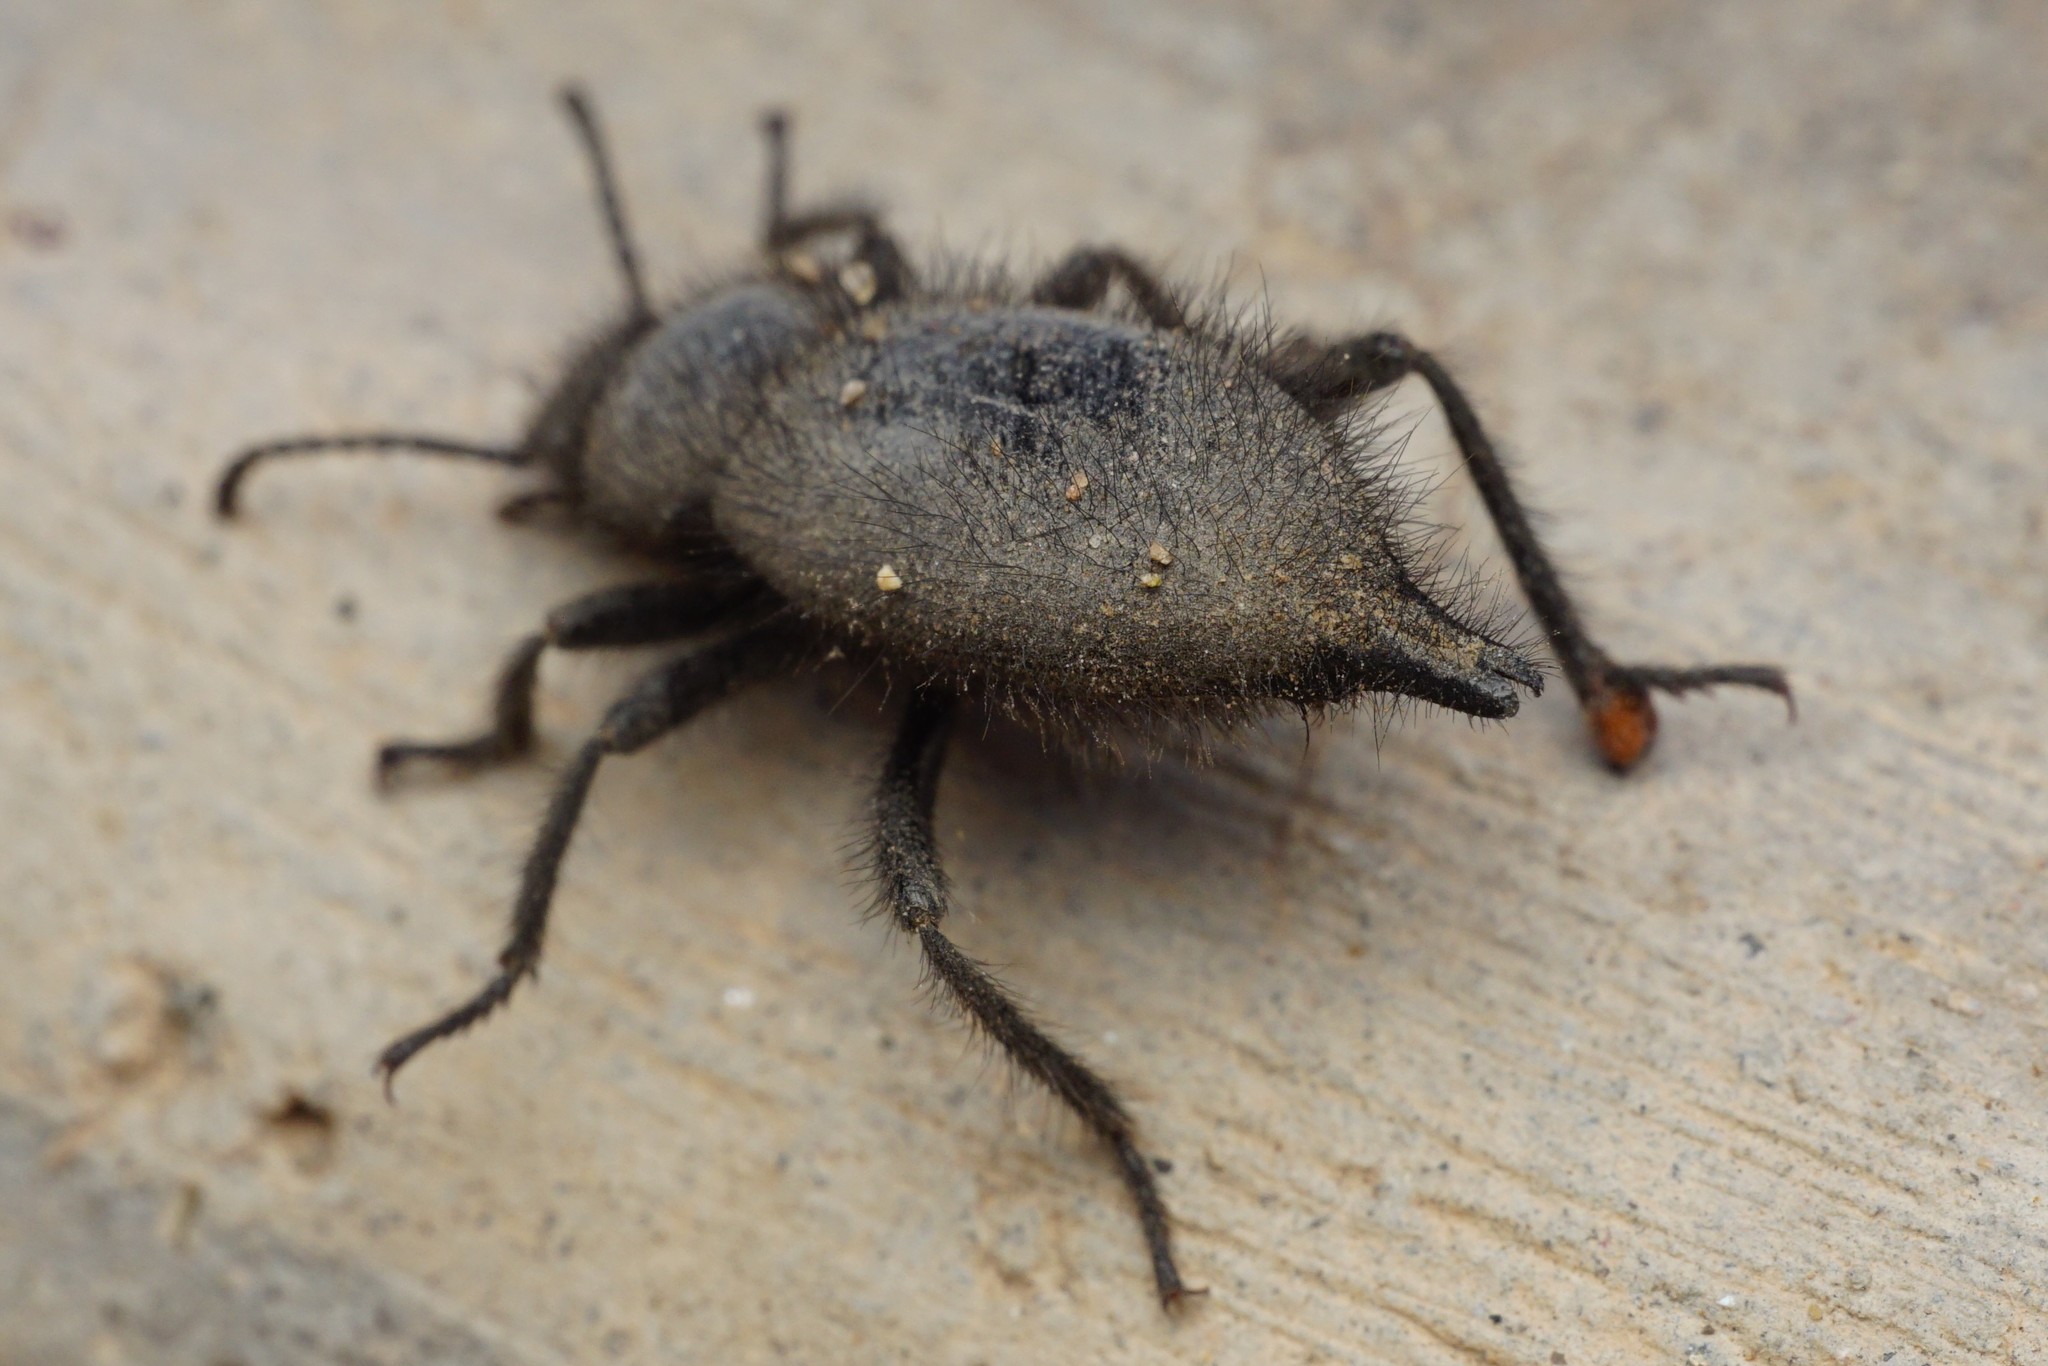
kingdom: Animalia
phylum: Arthropoda
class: Insecta
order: Coleoptera
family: Tenebrionidae
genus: Eleodes
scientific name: Eleodes tribulus
